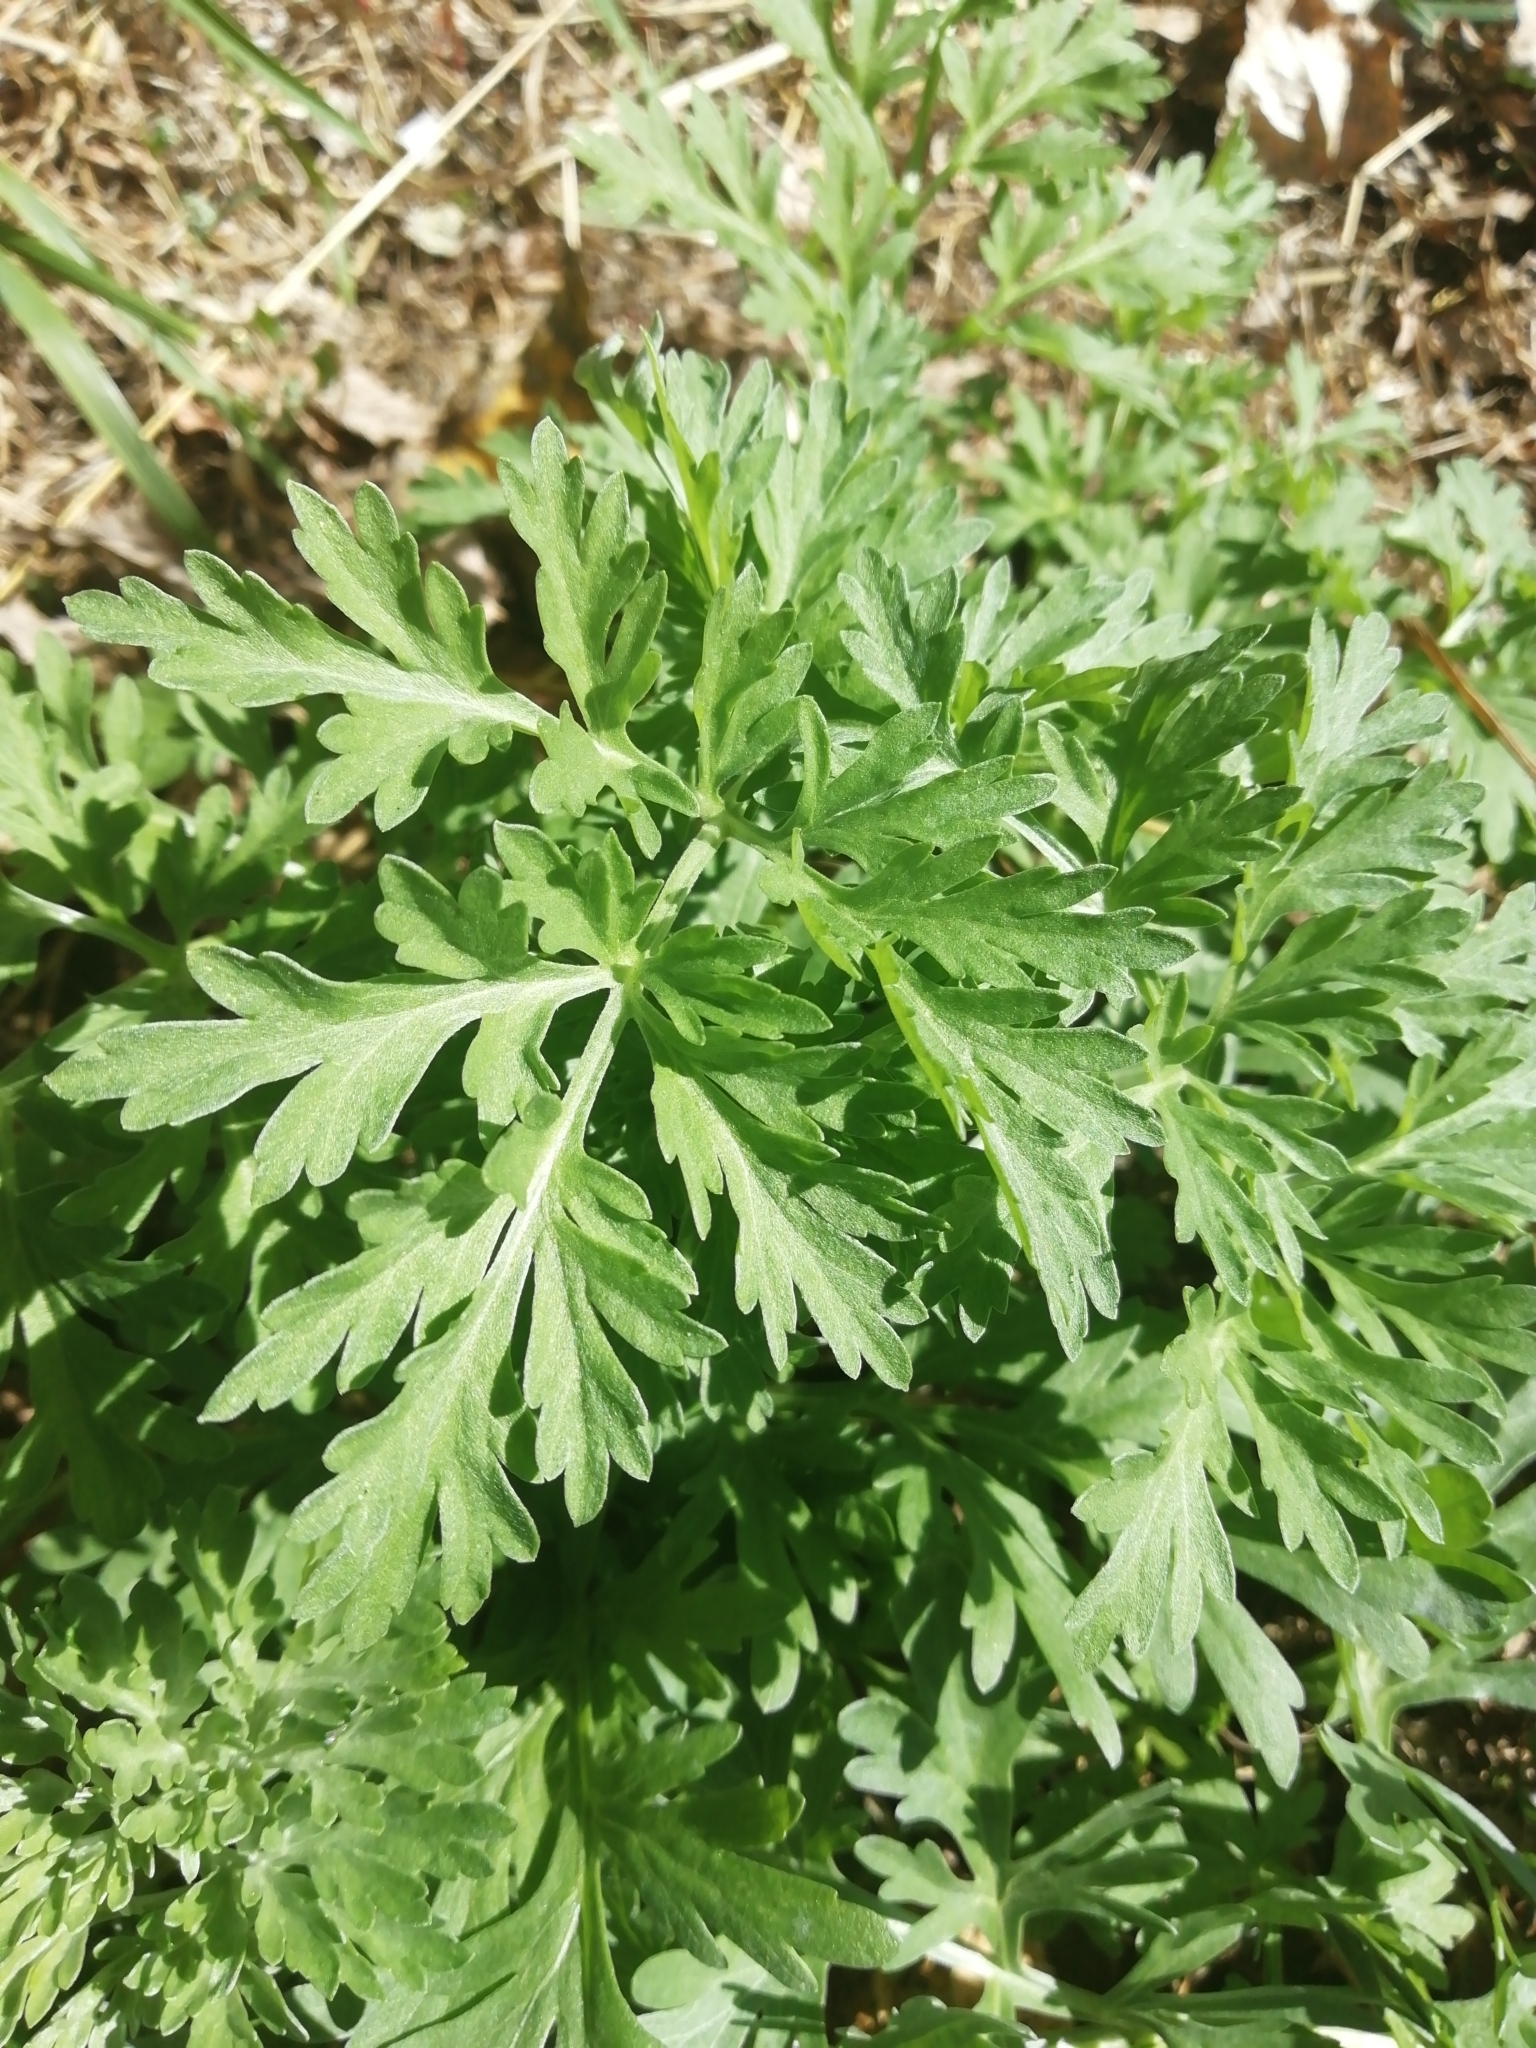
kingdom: Plantae
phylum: Tracheophyta
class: Magnoliopsida
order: Asterales
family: Asteraceae
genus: Artemisia
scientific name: Artemisia sieversiana
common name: Sieversian wormwood
